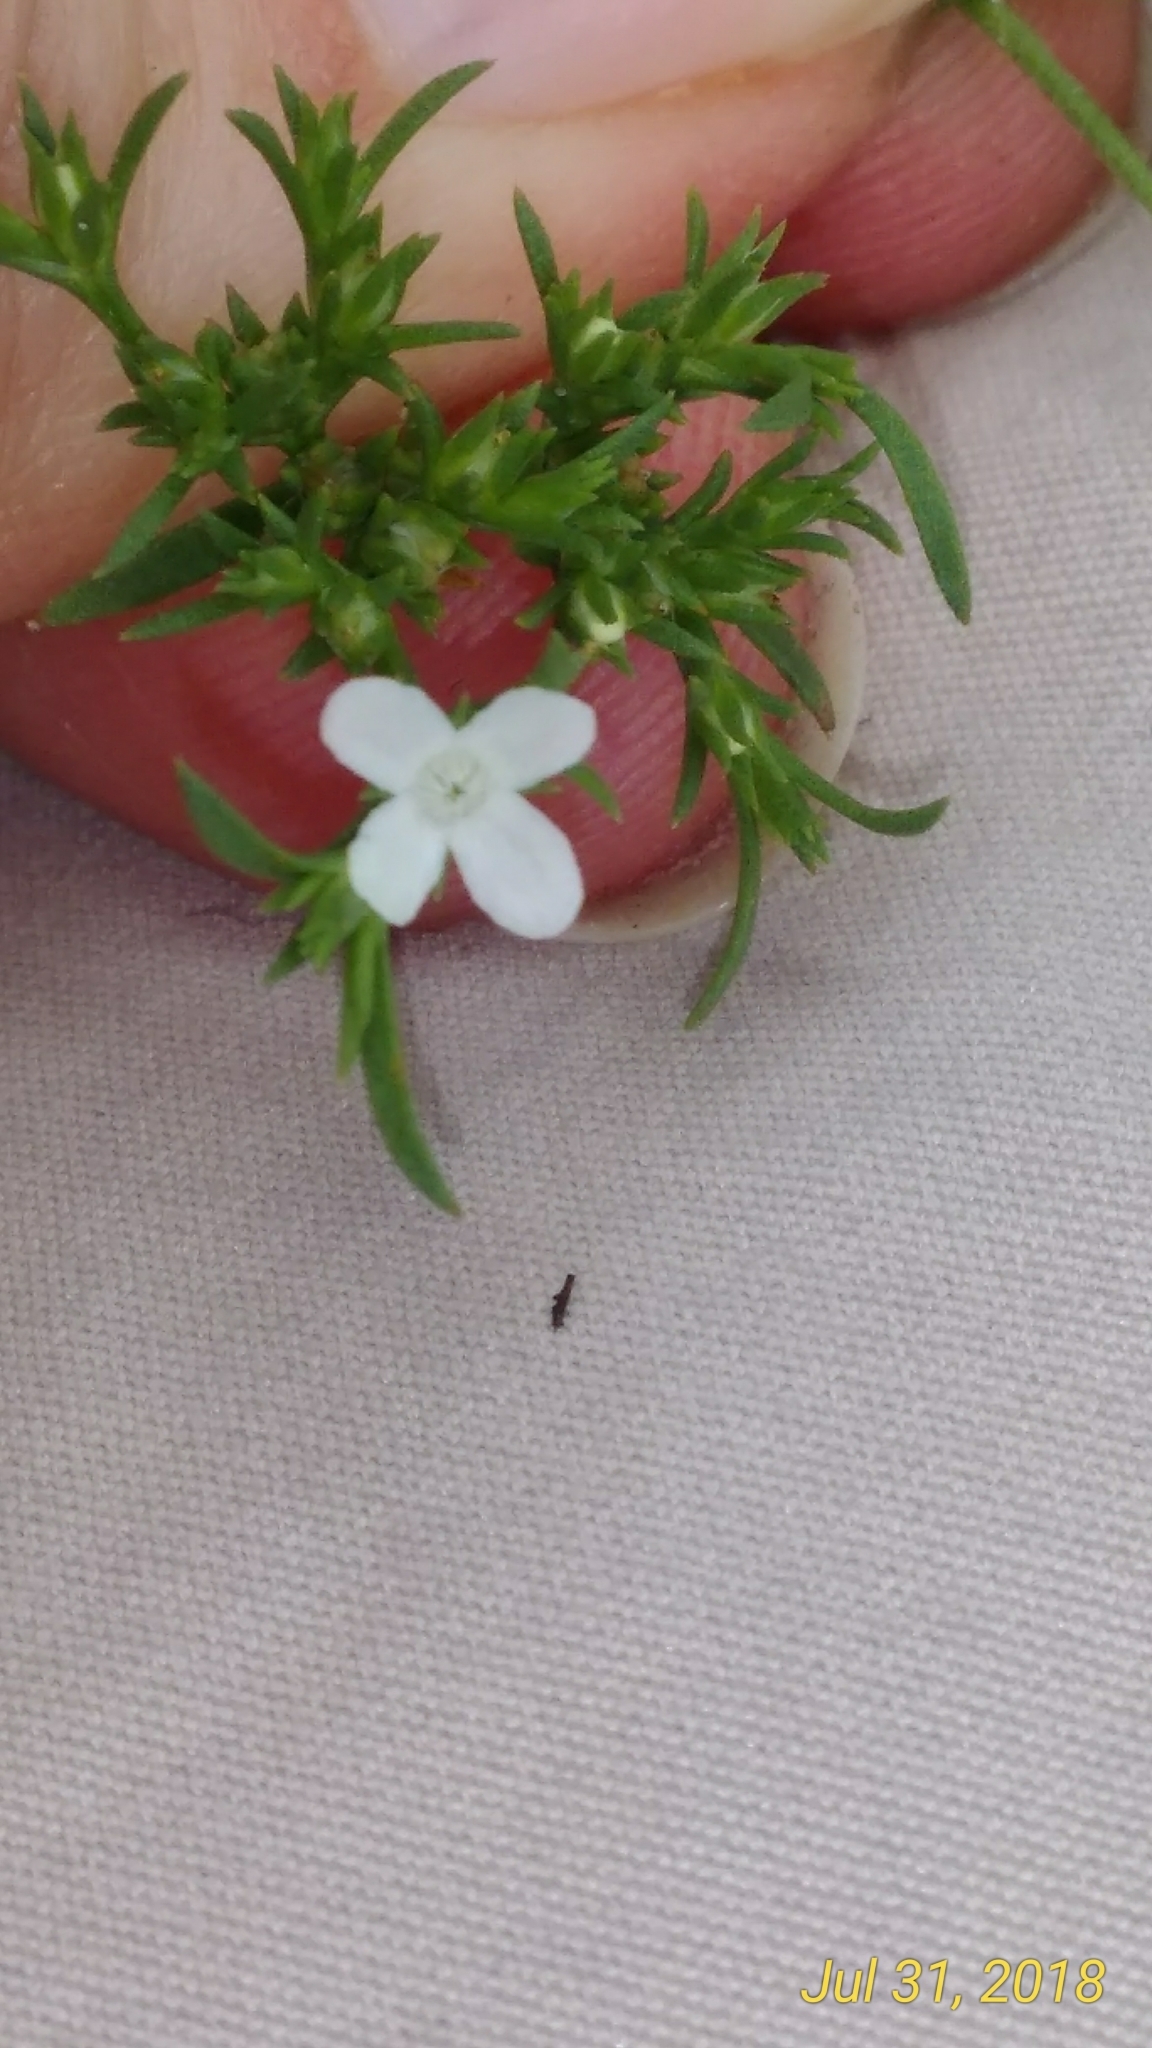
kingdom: Plantae
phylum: Tracheophyta
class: Magnoliopsida
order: Lamiales
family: Tetrachondraceae
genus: Polypremum
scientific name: Polypremum procumbens
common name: Juniper-leaf
